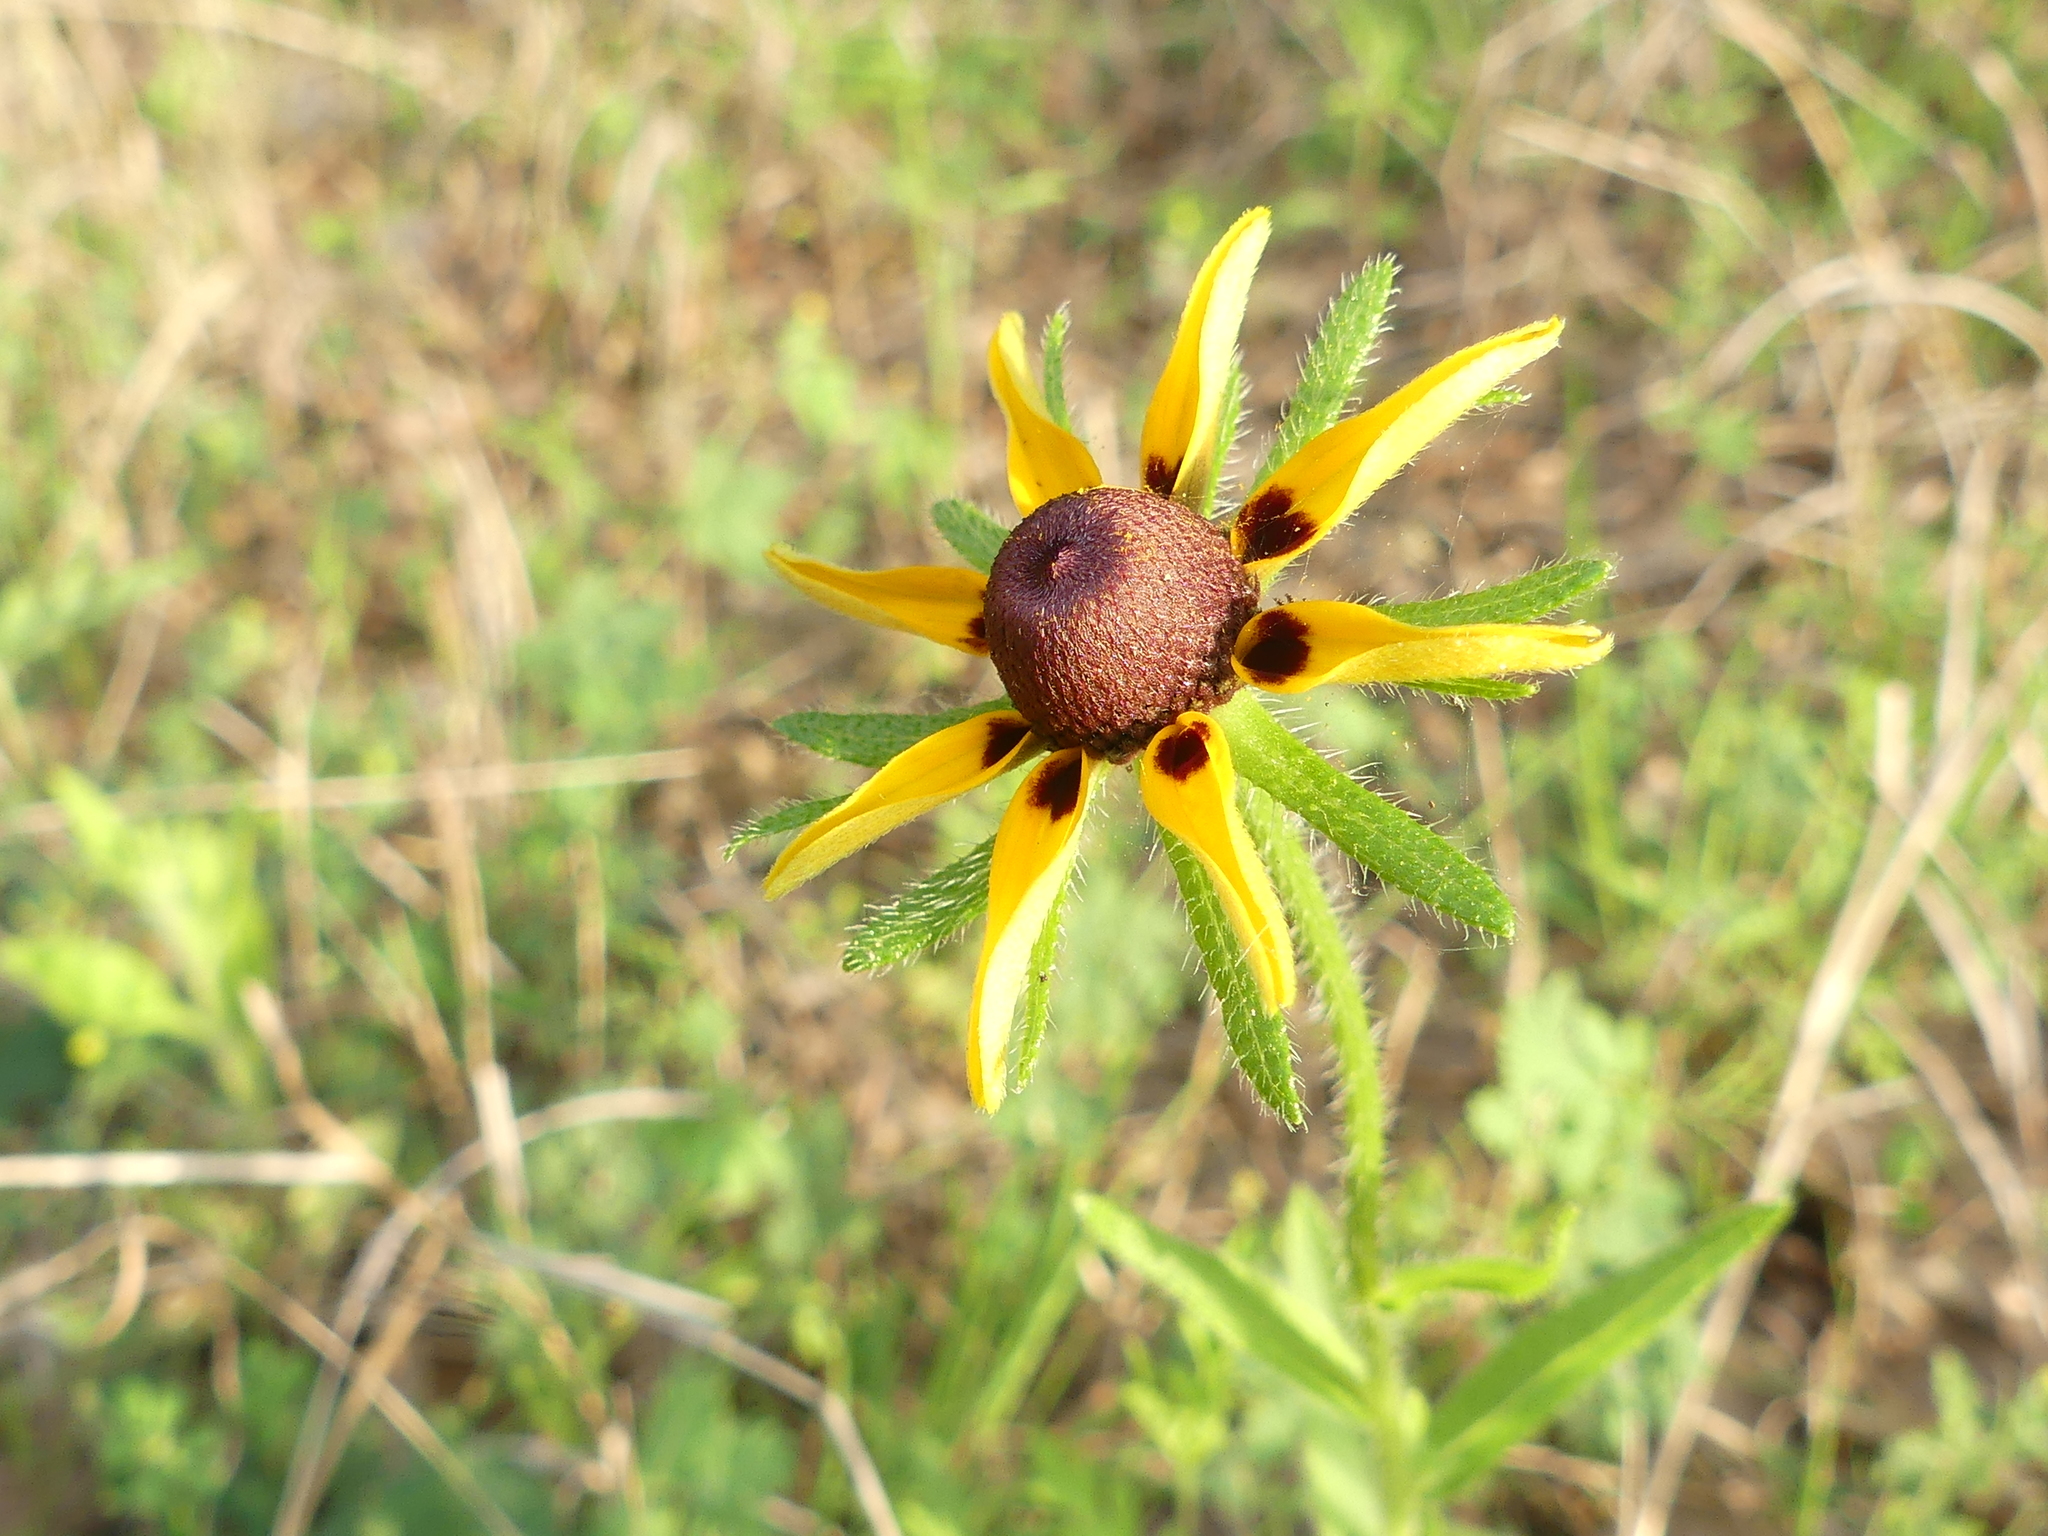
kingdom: Plantae
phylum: Tracheophyta
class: Magnoliopsida
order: Asterales
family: Asteraceae
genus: Rudbeckia
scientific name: Rudbeckia hirta
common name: Black-eyed-susan
